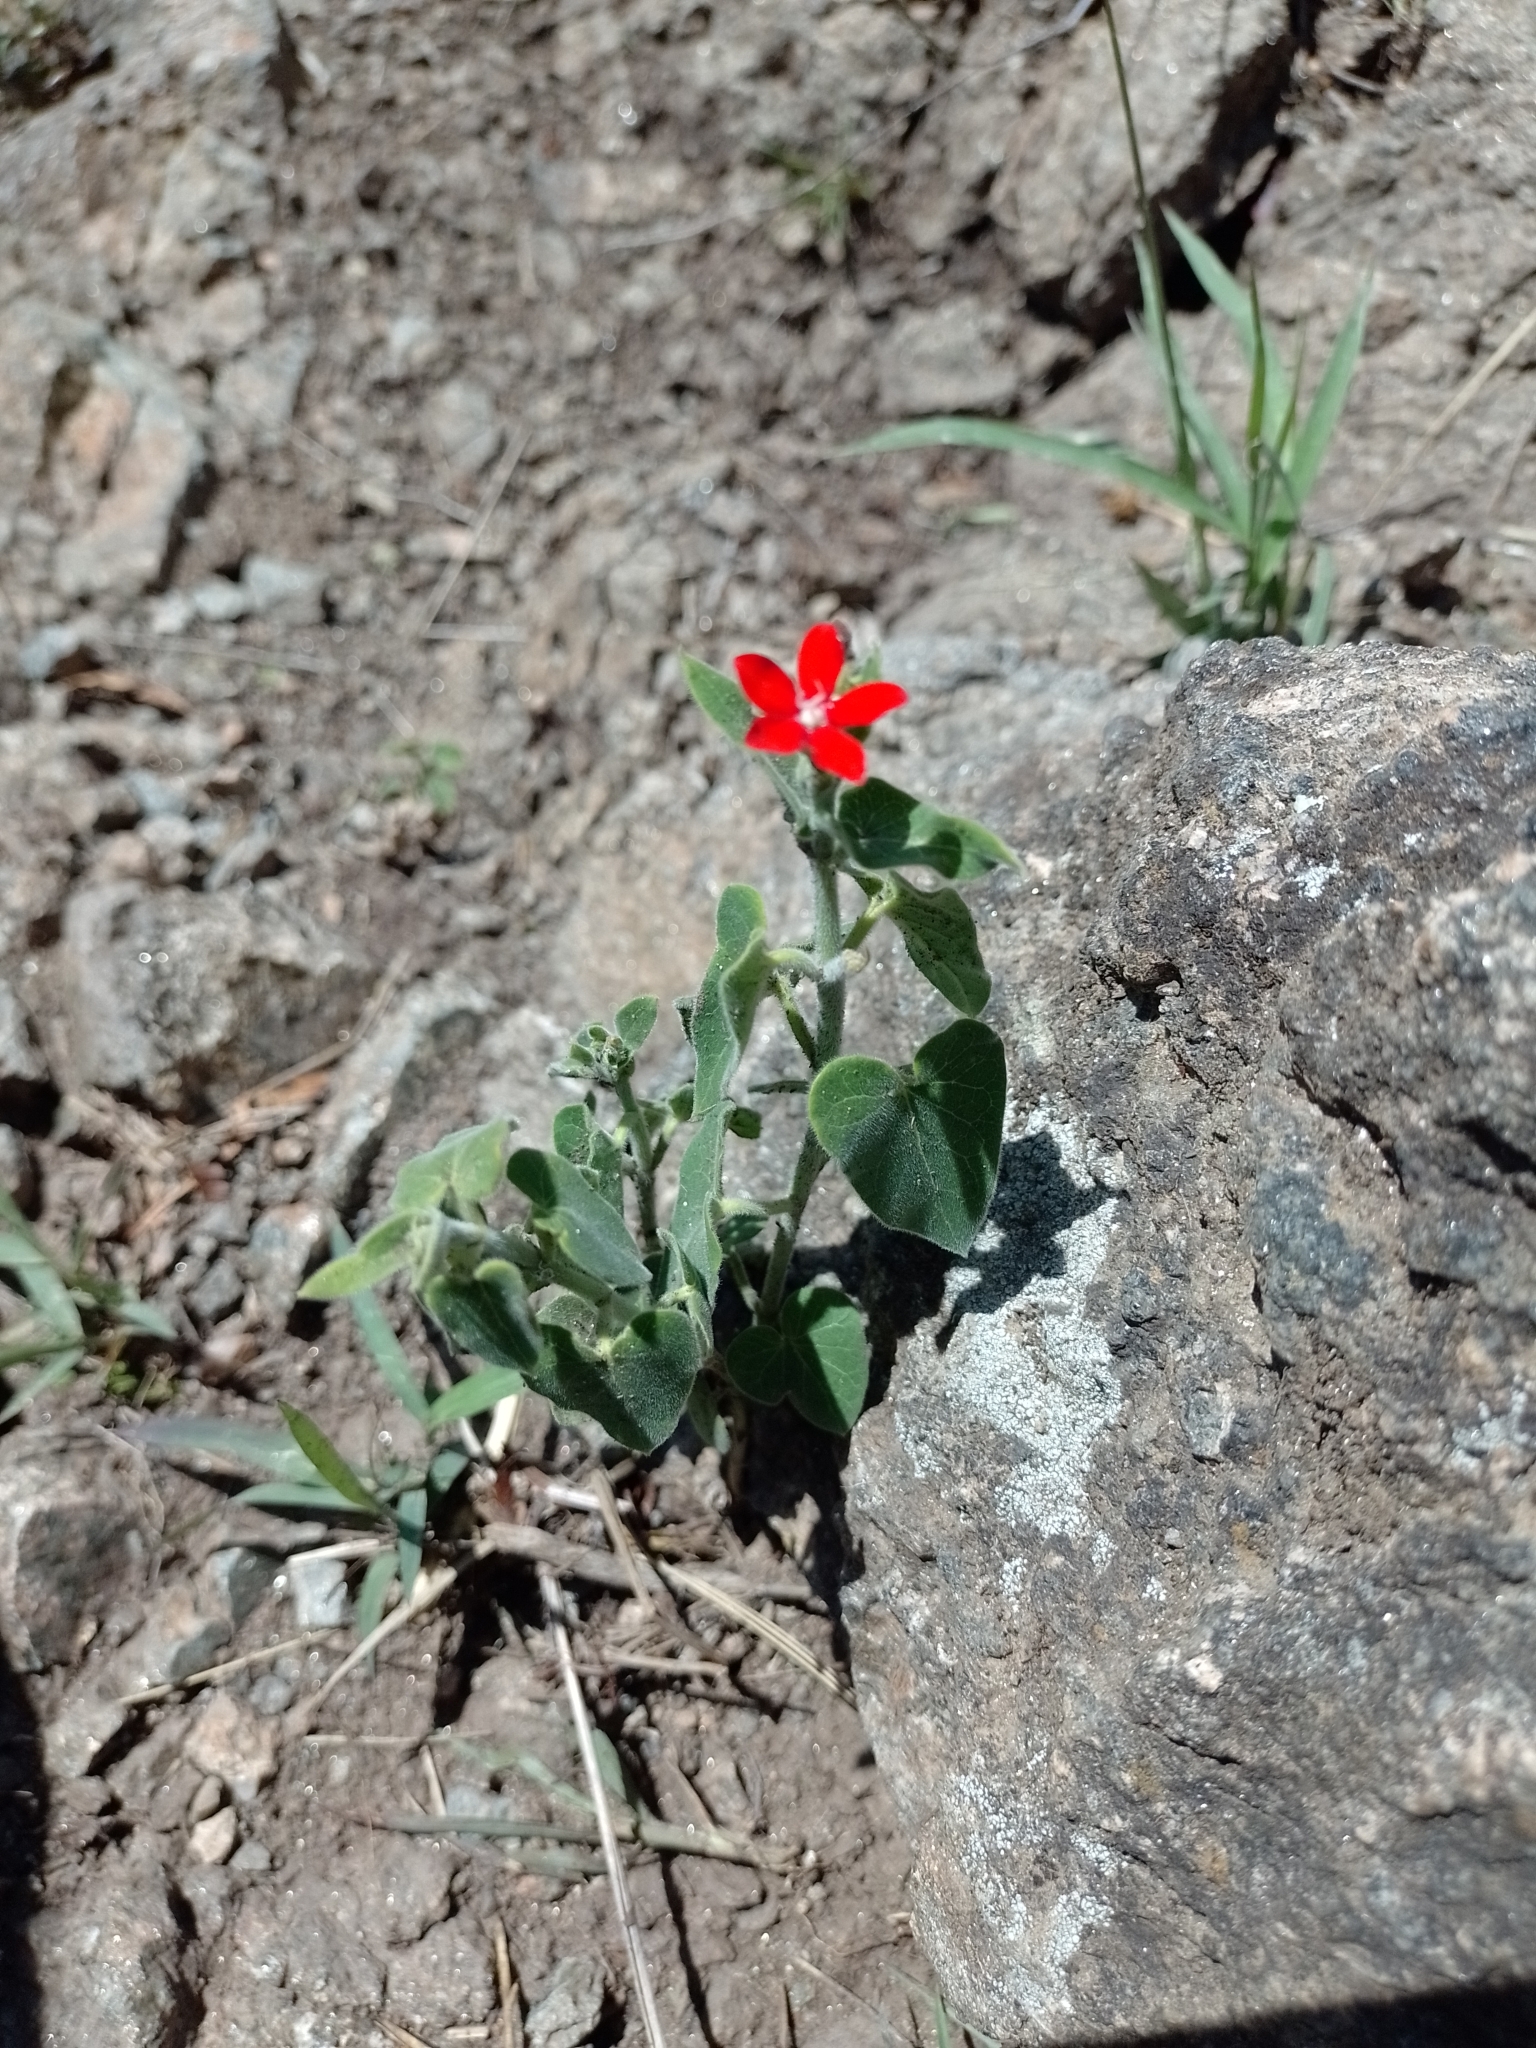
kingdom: Plantae
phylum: Tracheophyta
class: Magnoliopsida
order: Gentianales
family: Apocynaceae
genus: Oxypetalum
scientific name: Oxypetalum coccineum
